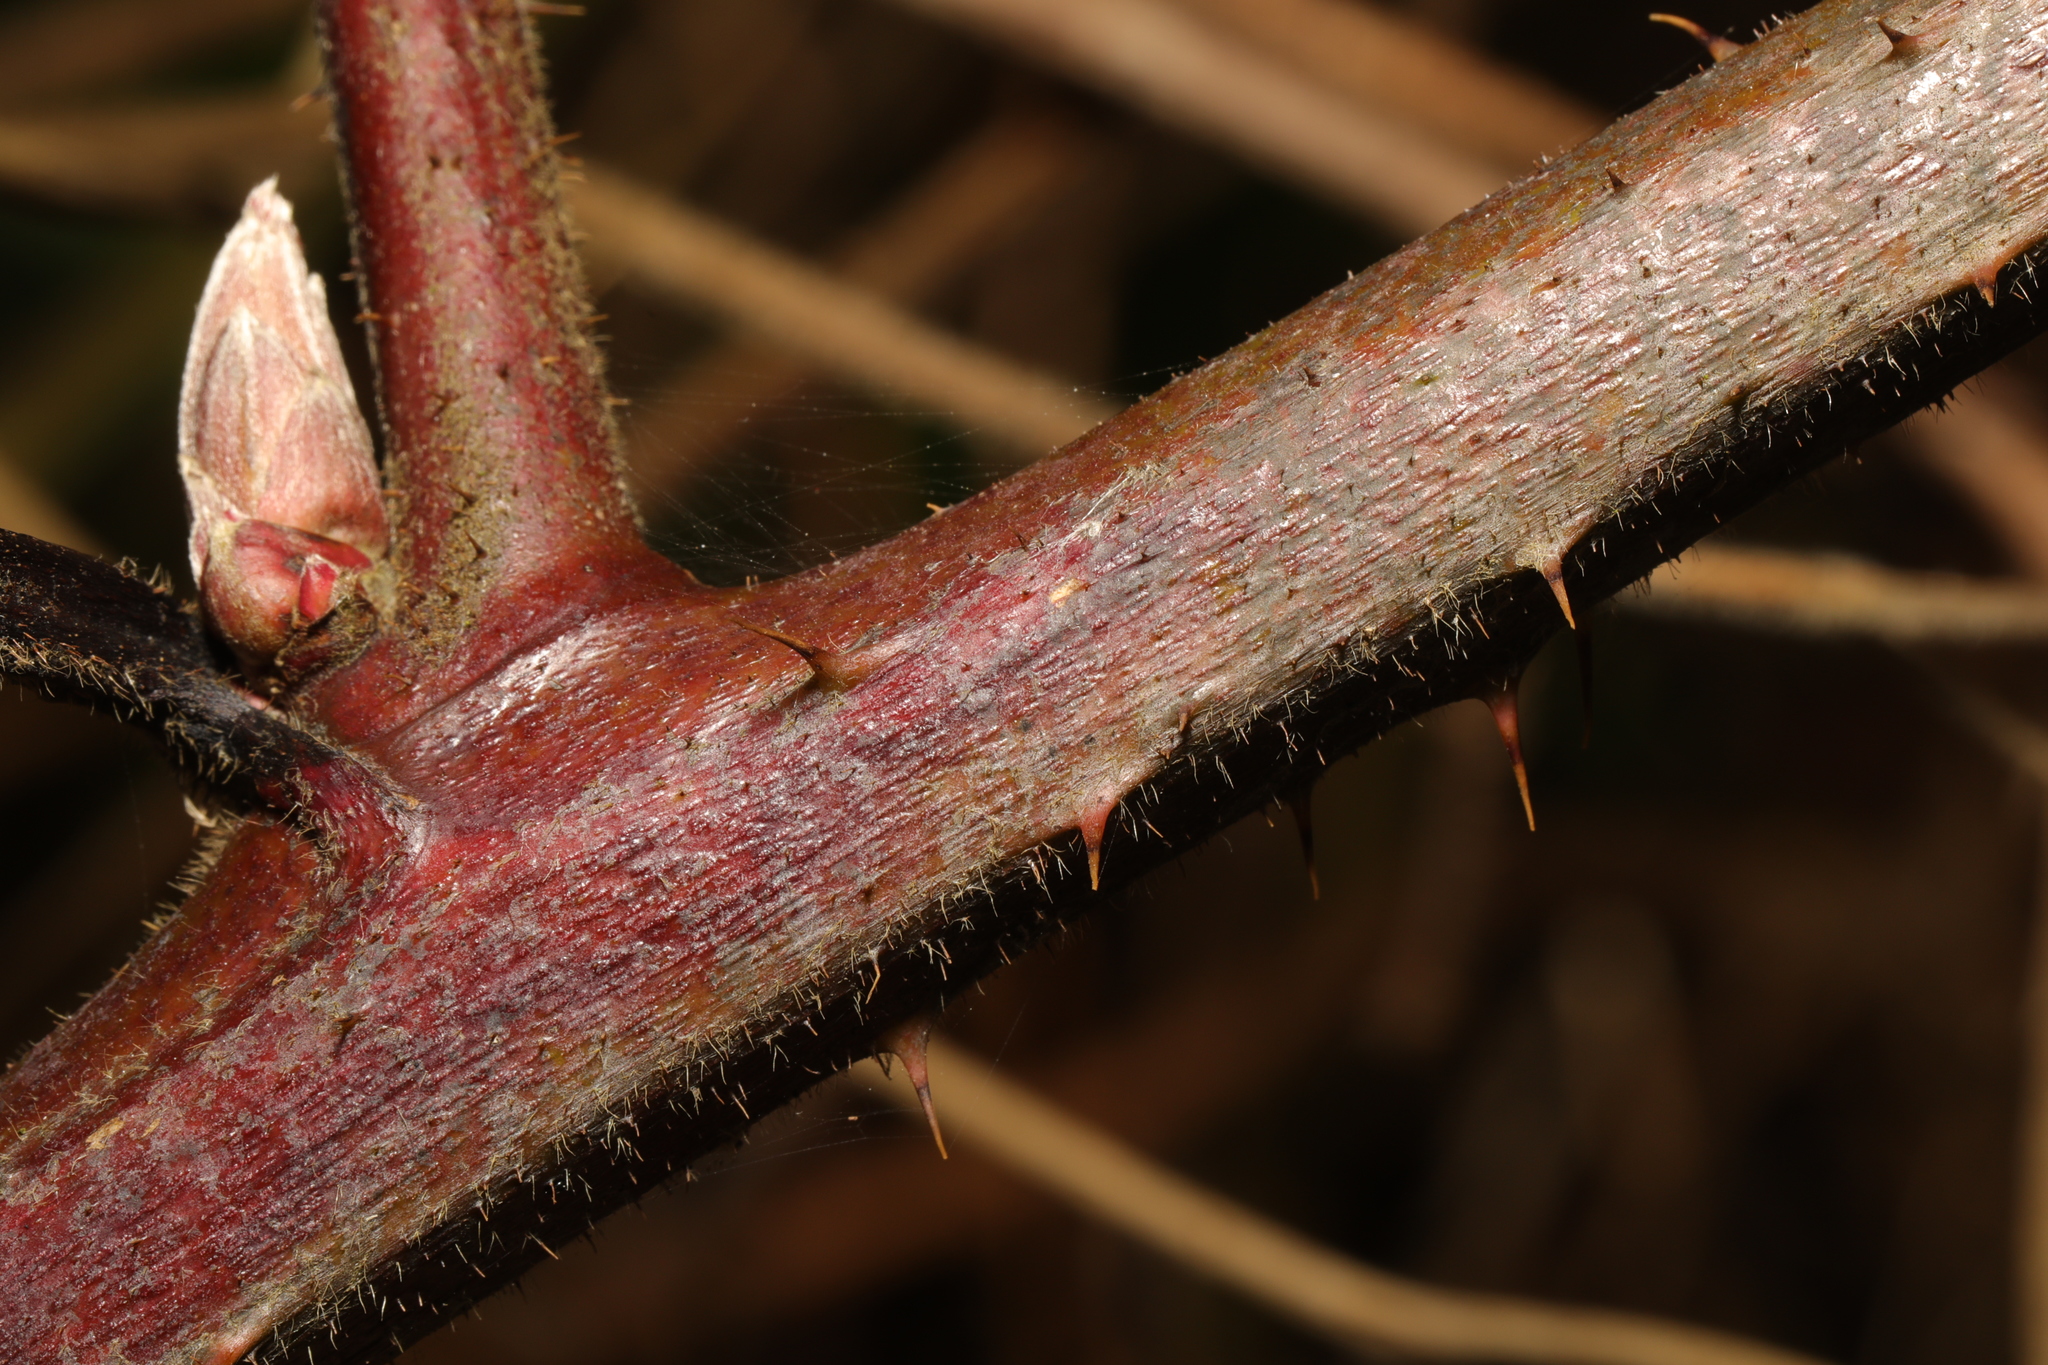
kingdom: Plantae
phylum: Tracheophyta
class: Magnoliopsida
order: Rosales
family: Rosaceae
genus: Rubus
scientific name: Rubus fruticosus
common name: Blackberry, bramble
